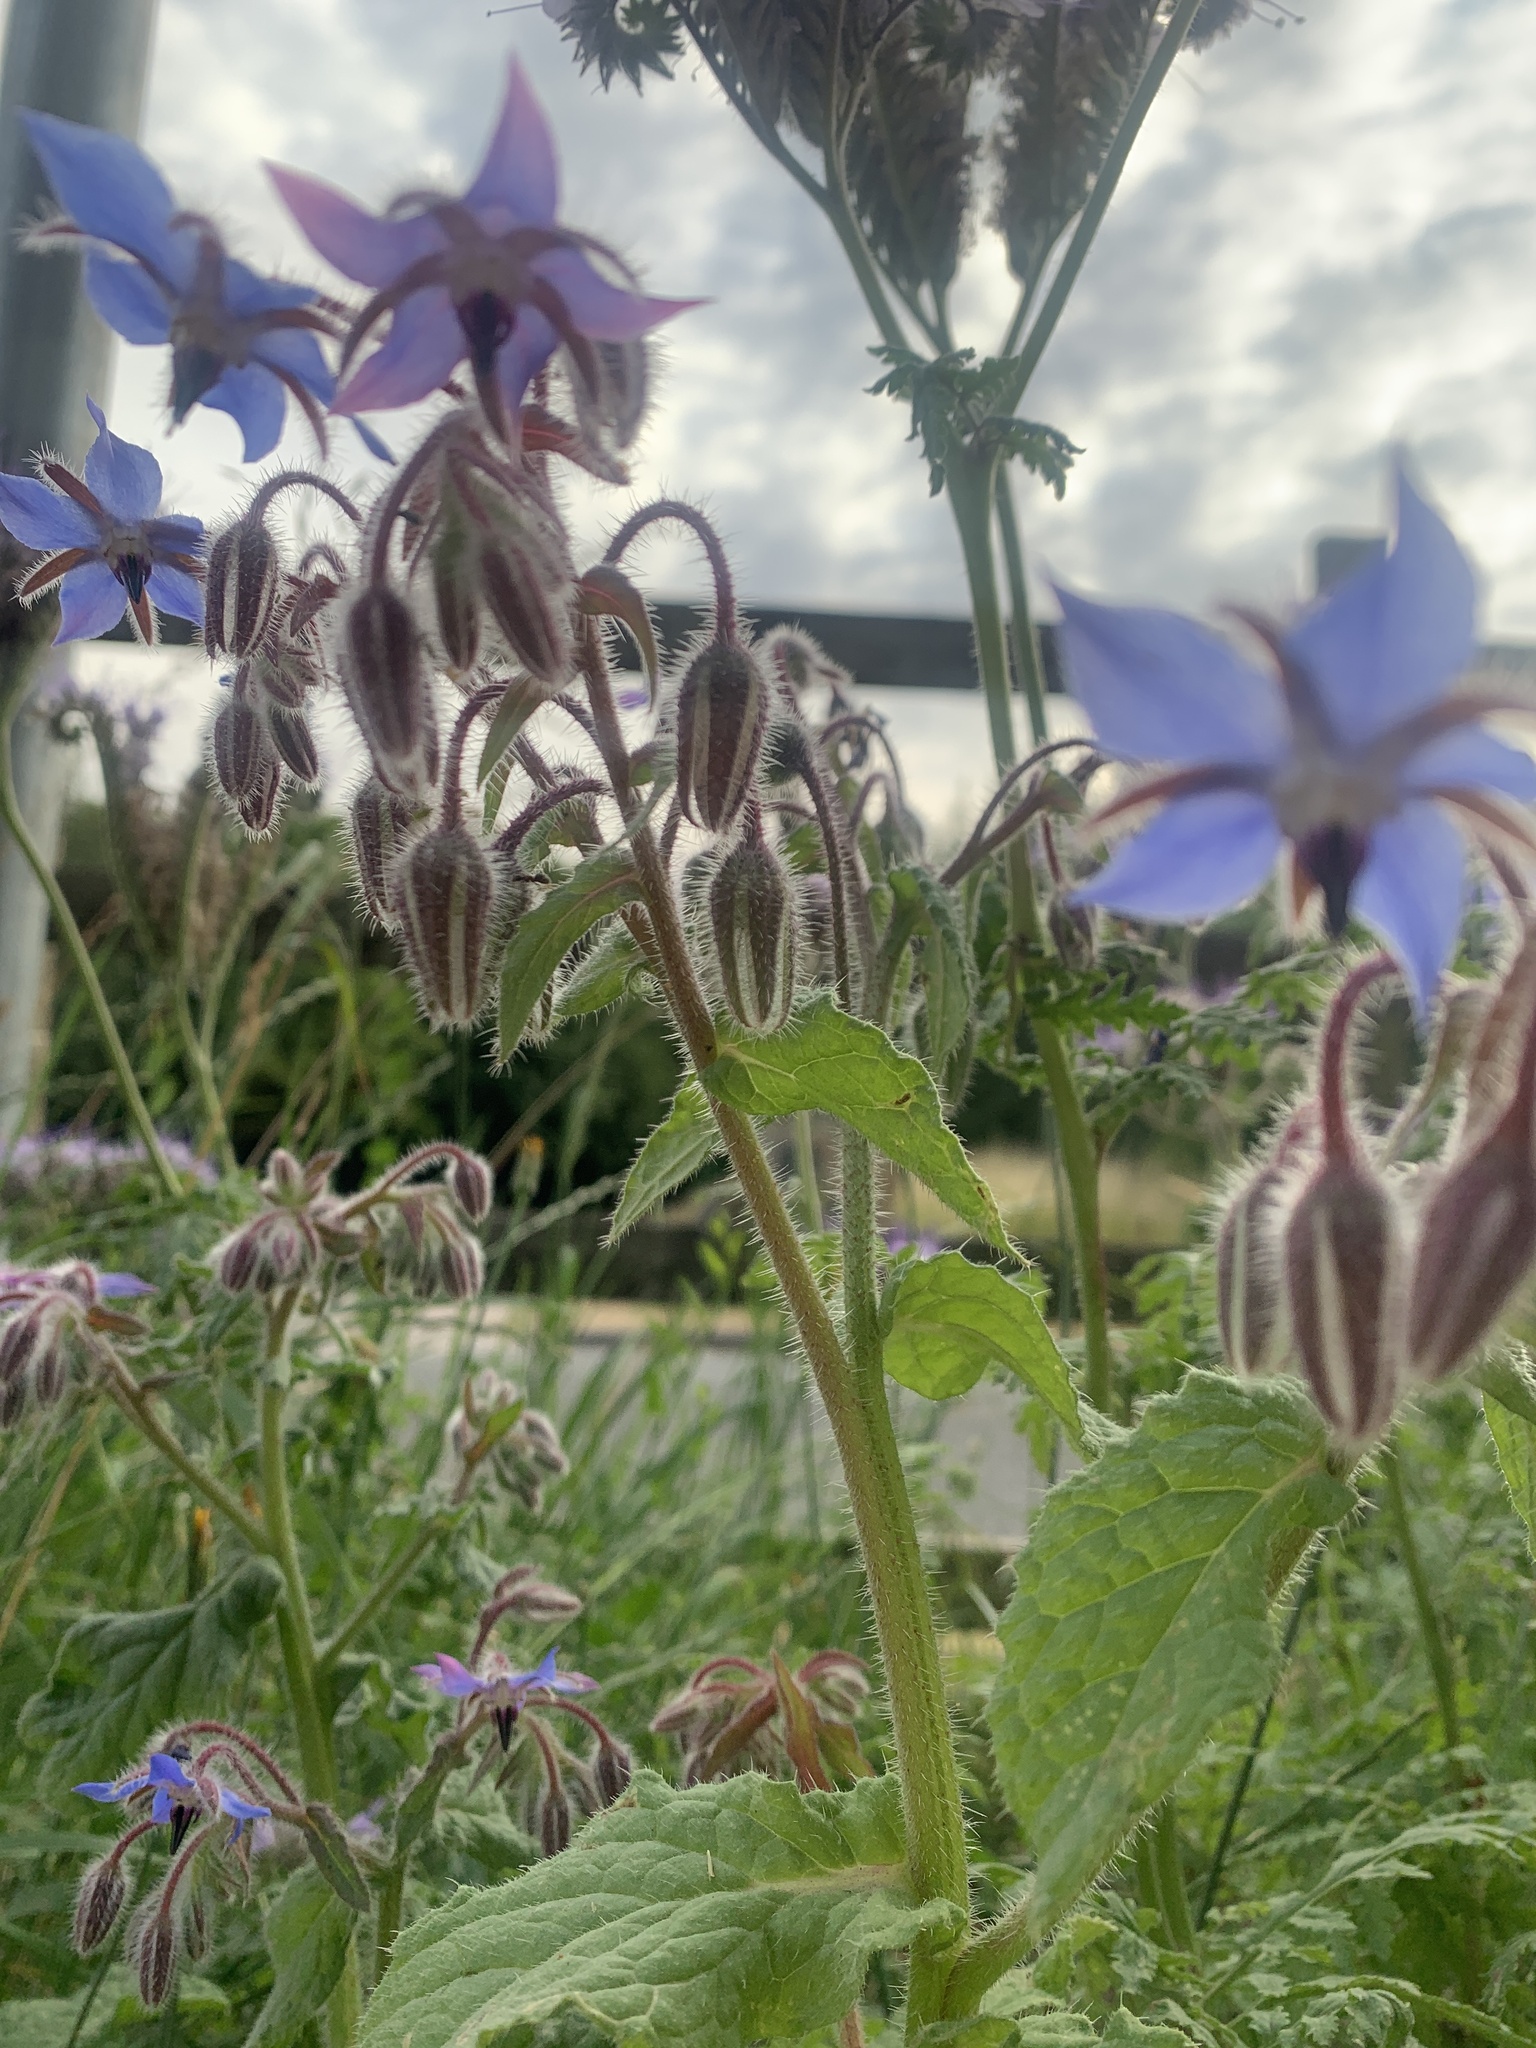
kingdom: Plantae
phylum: Tracheophyta
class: Magnoliopsida
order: Boraginales
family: Boraginaceae
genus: Borago
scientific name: Borago officinalis
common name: Borage
